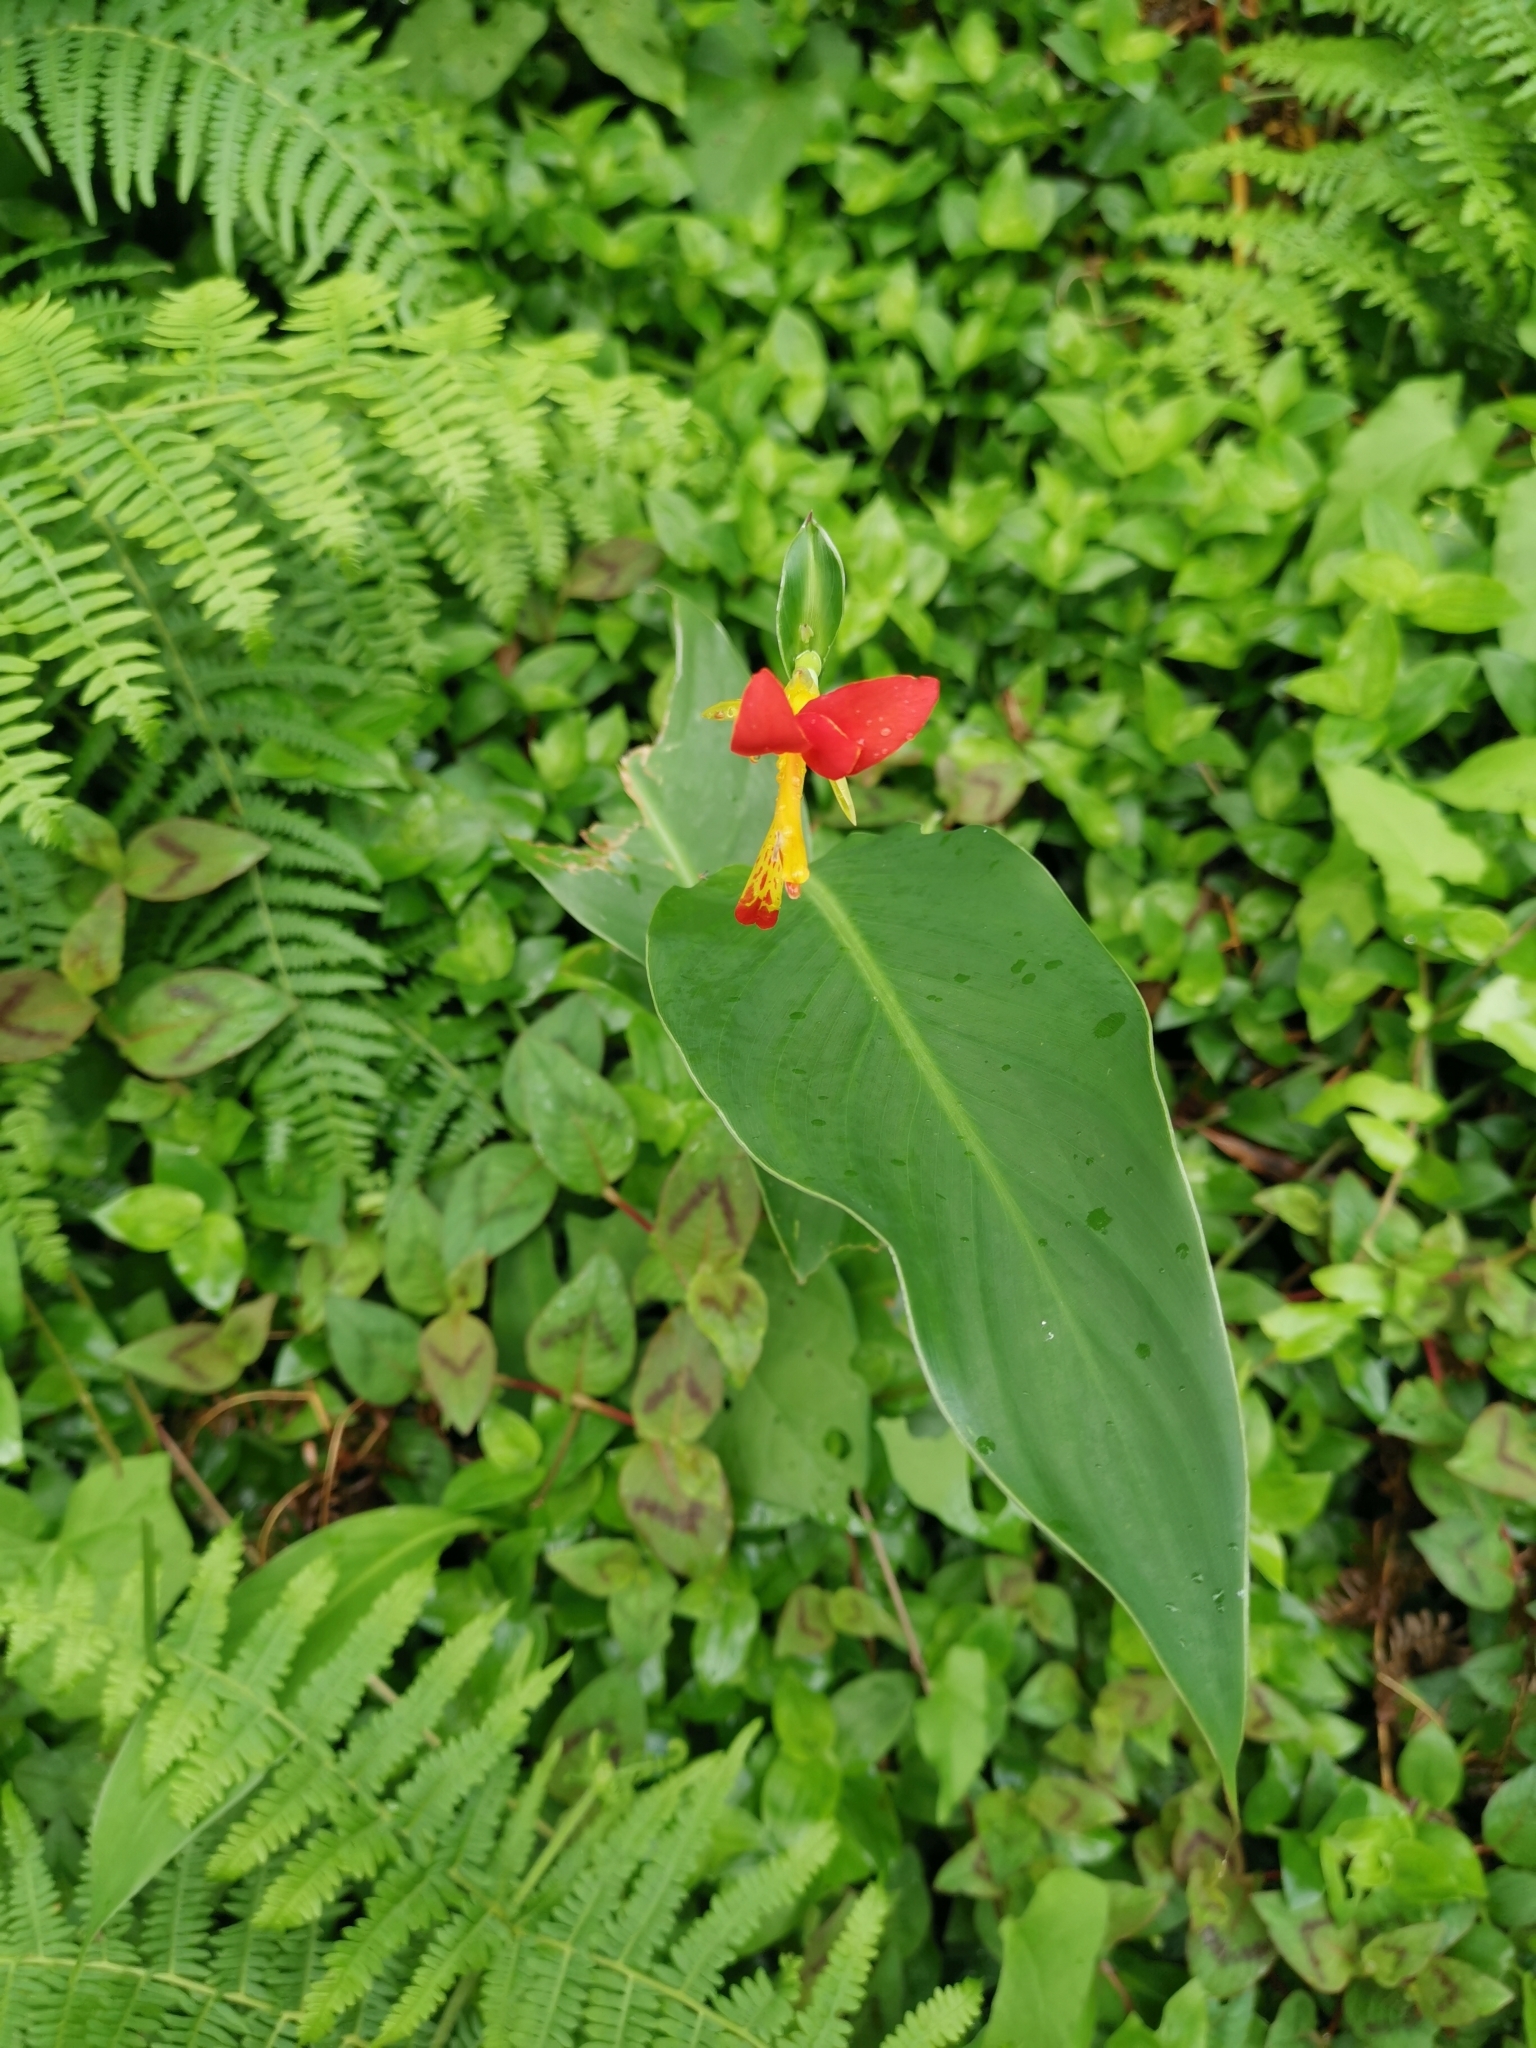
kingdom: Plantae
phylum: Tracheophyta
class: Liliopsida
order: Zingiberales
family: Cannaceae
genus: Canna
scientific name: Canna indica
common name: Indian shot
